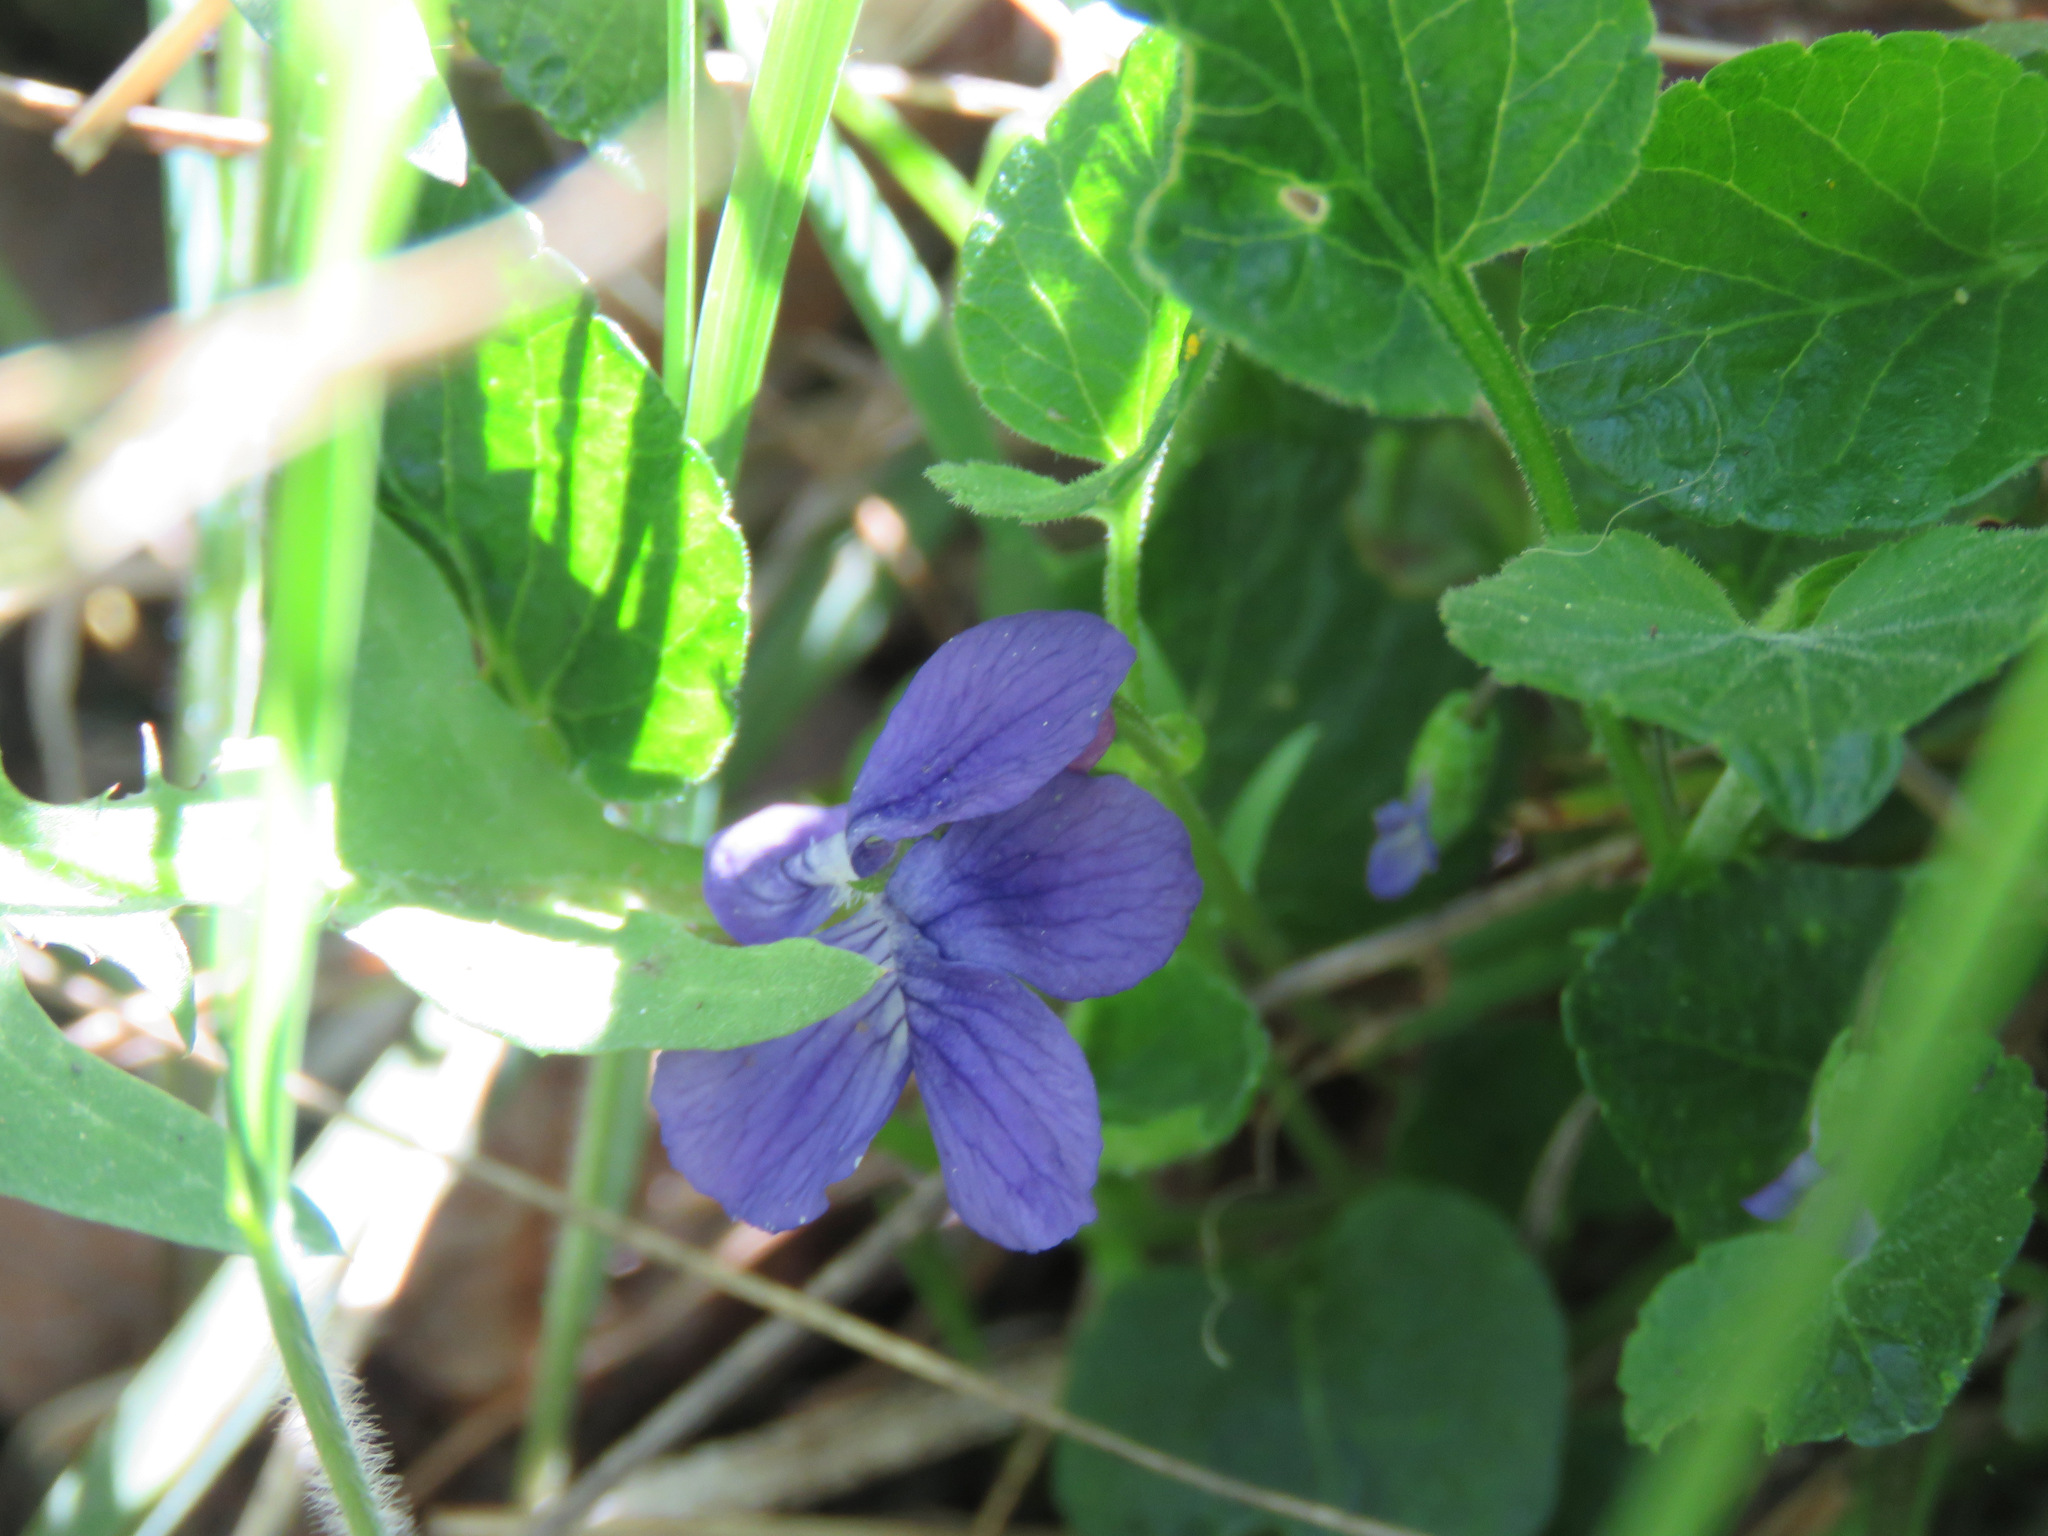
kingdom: Plantae
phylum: Tracheophyta
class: Magnoliopsida
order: Malpighiales
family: Violaceae
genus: Viola
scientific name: Viola adunca
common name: Sand violet
